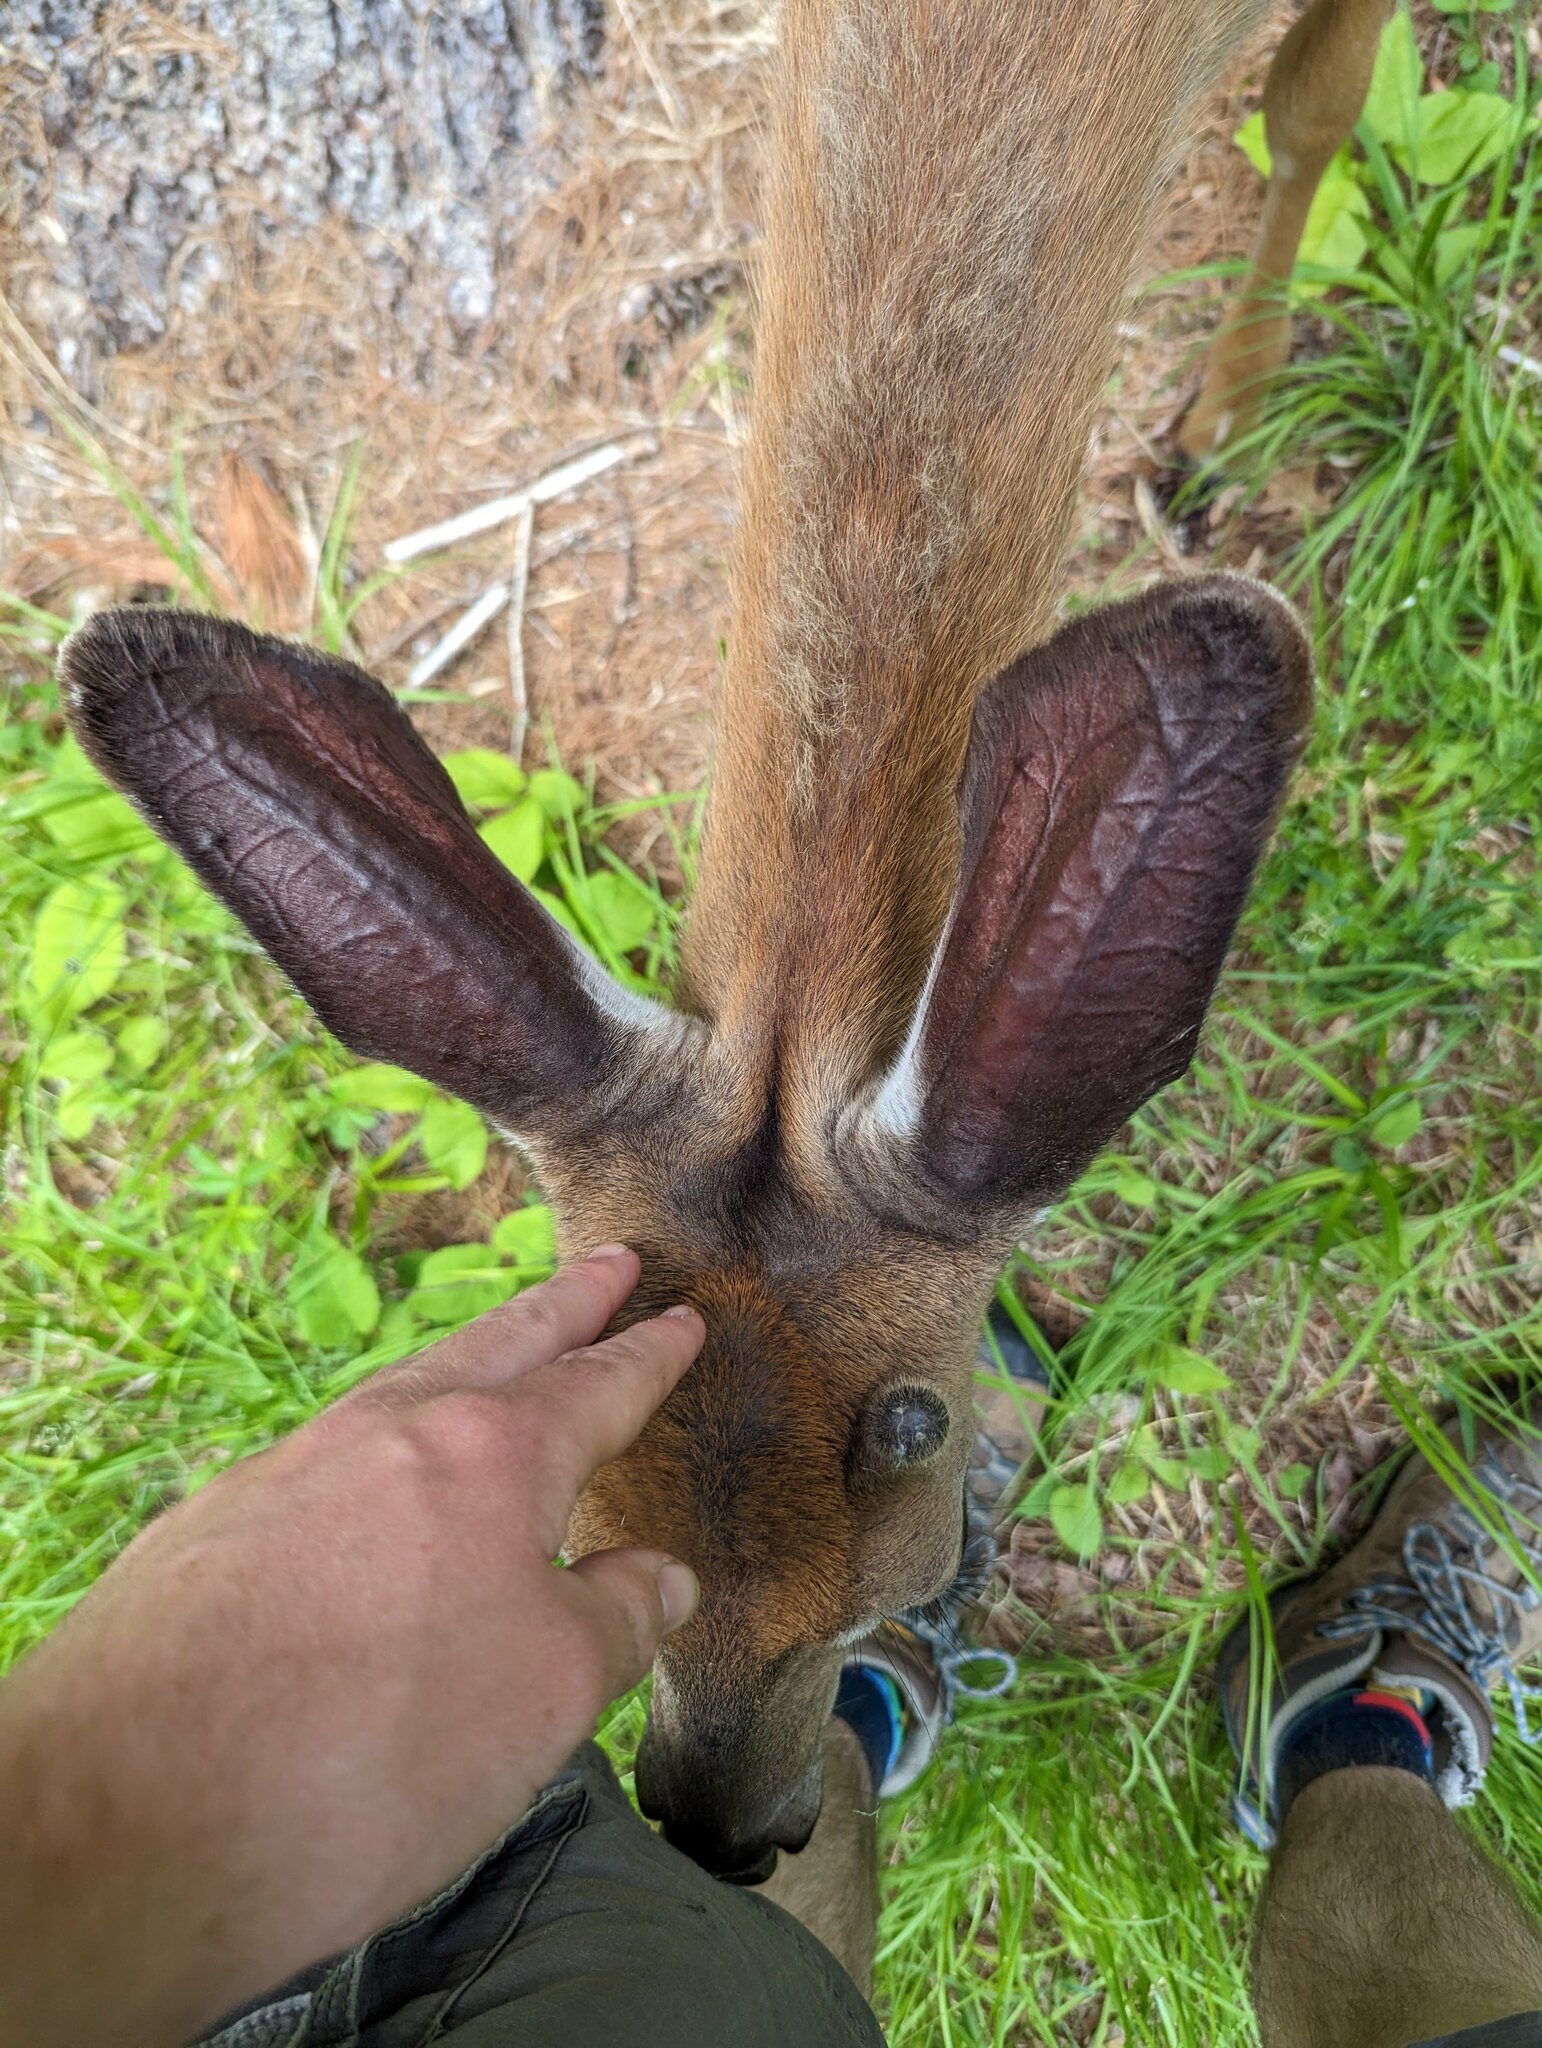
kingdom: Animalia
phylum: Chordata
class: Mammalia
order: Artiodactyla
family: Cervidae
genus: Odocoileus
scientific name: Odocoileus virginianus
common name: White-tailed deer
